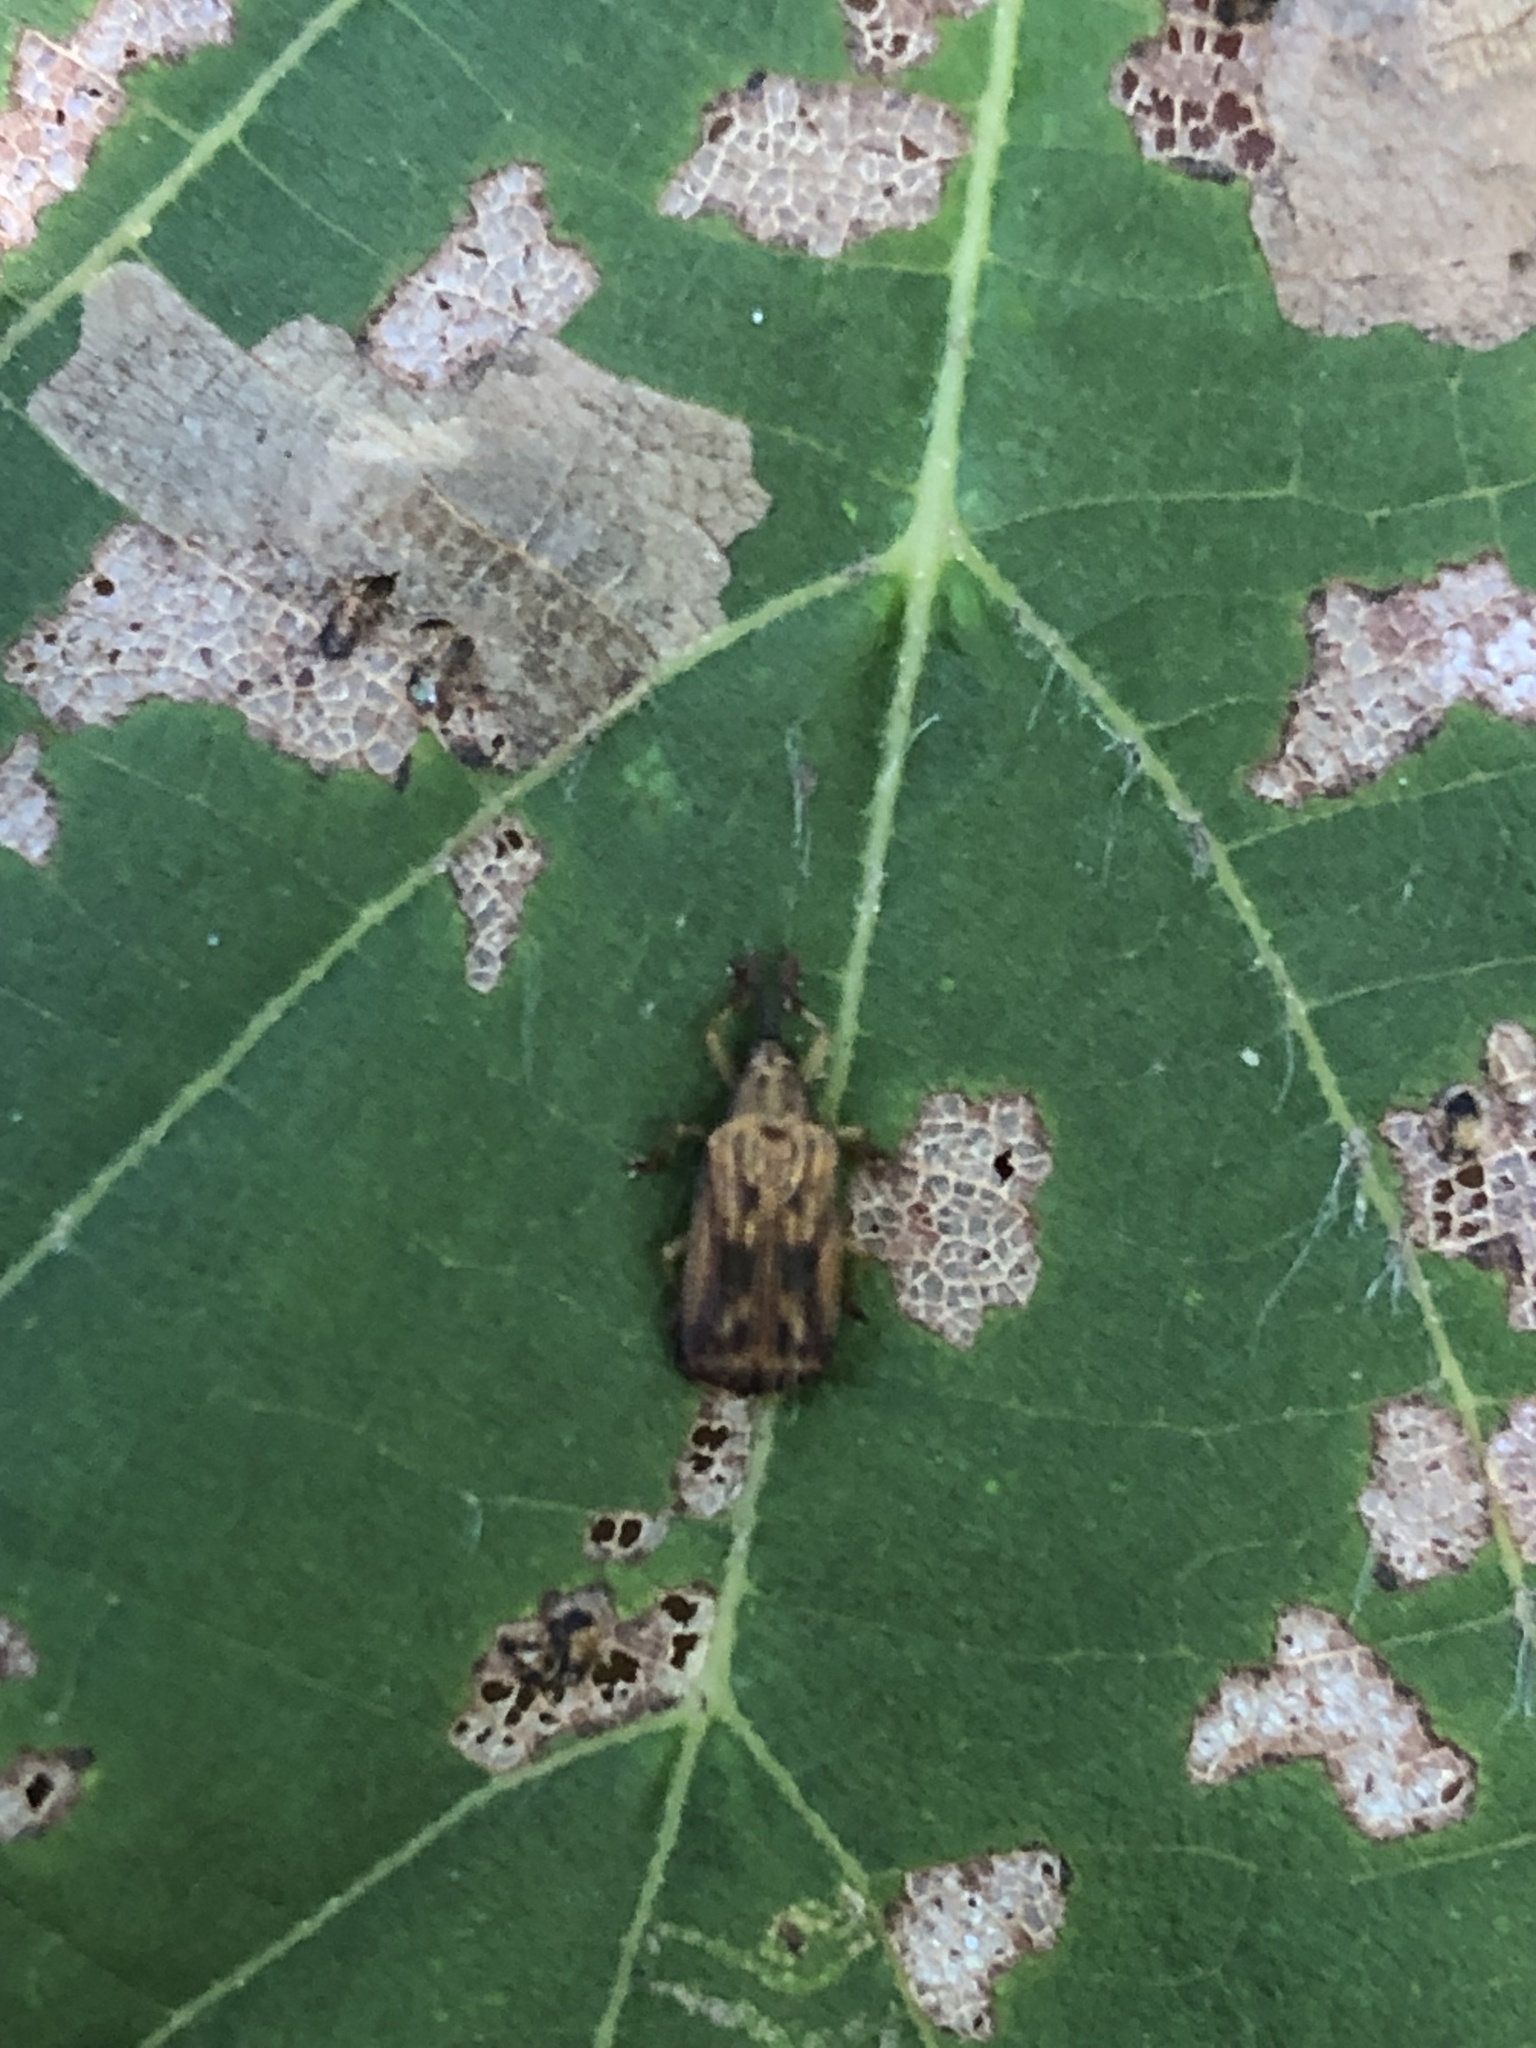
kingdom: Animalia
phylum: Arthropoda
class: Insecta
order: Coleoptera
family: Chrysomelidae
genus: Baliosus
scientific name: Baliosus nervosus
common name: Basswood leaf miner
